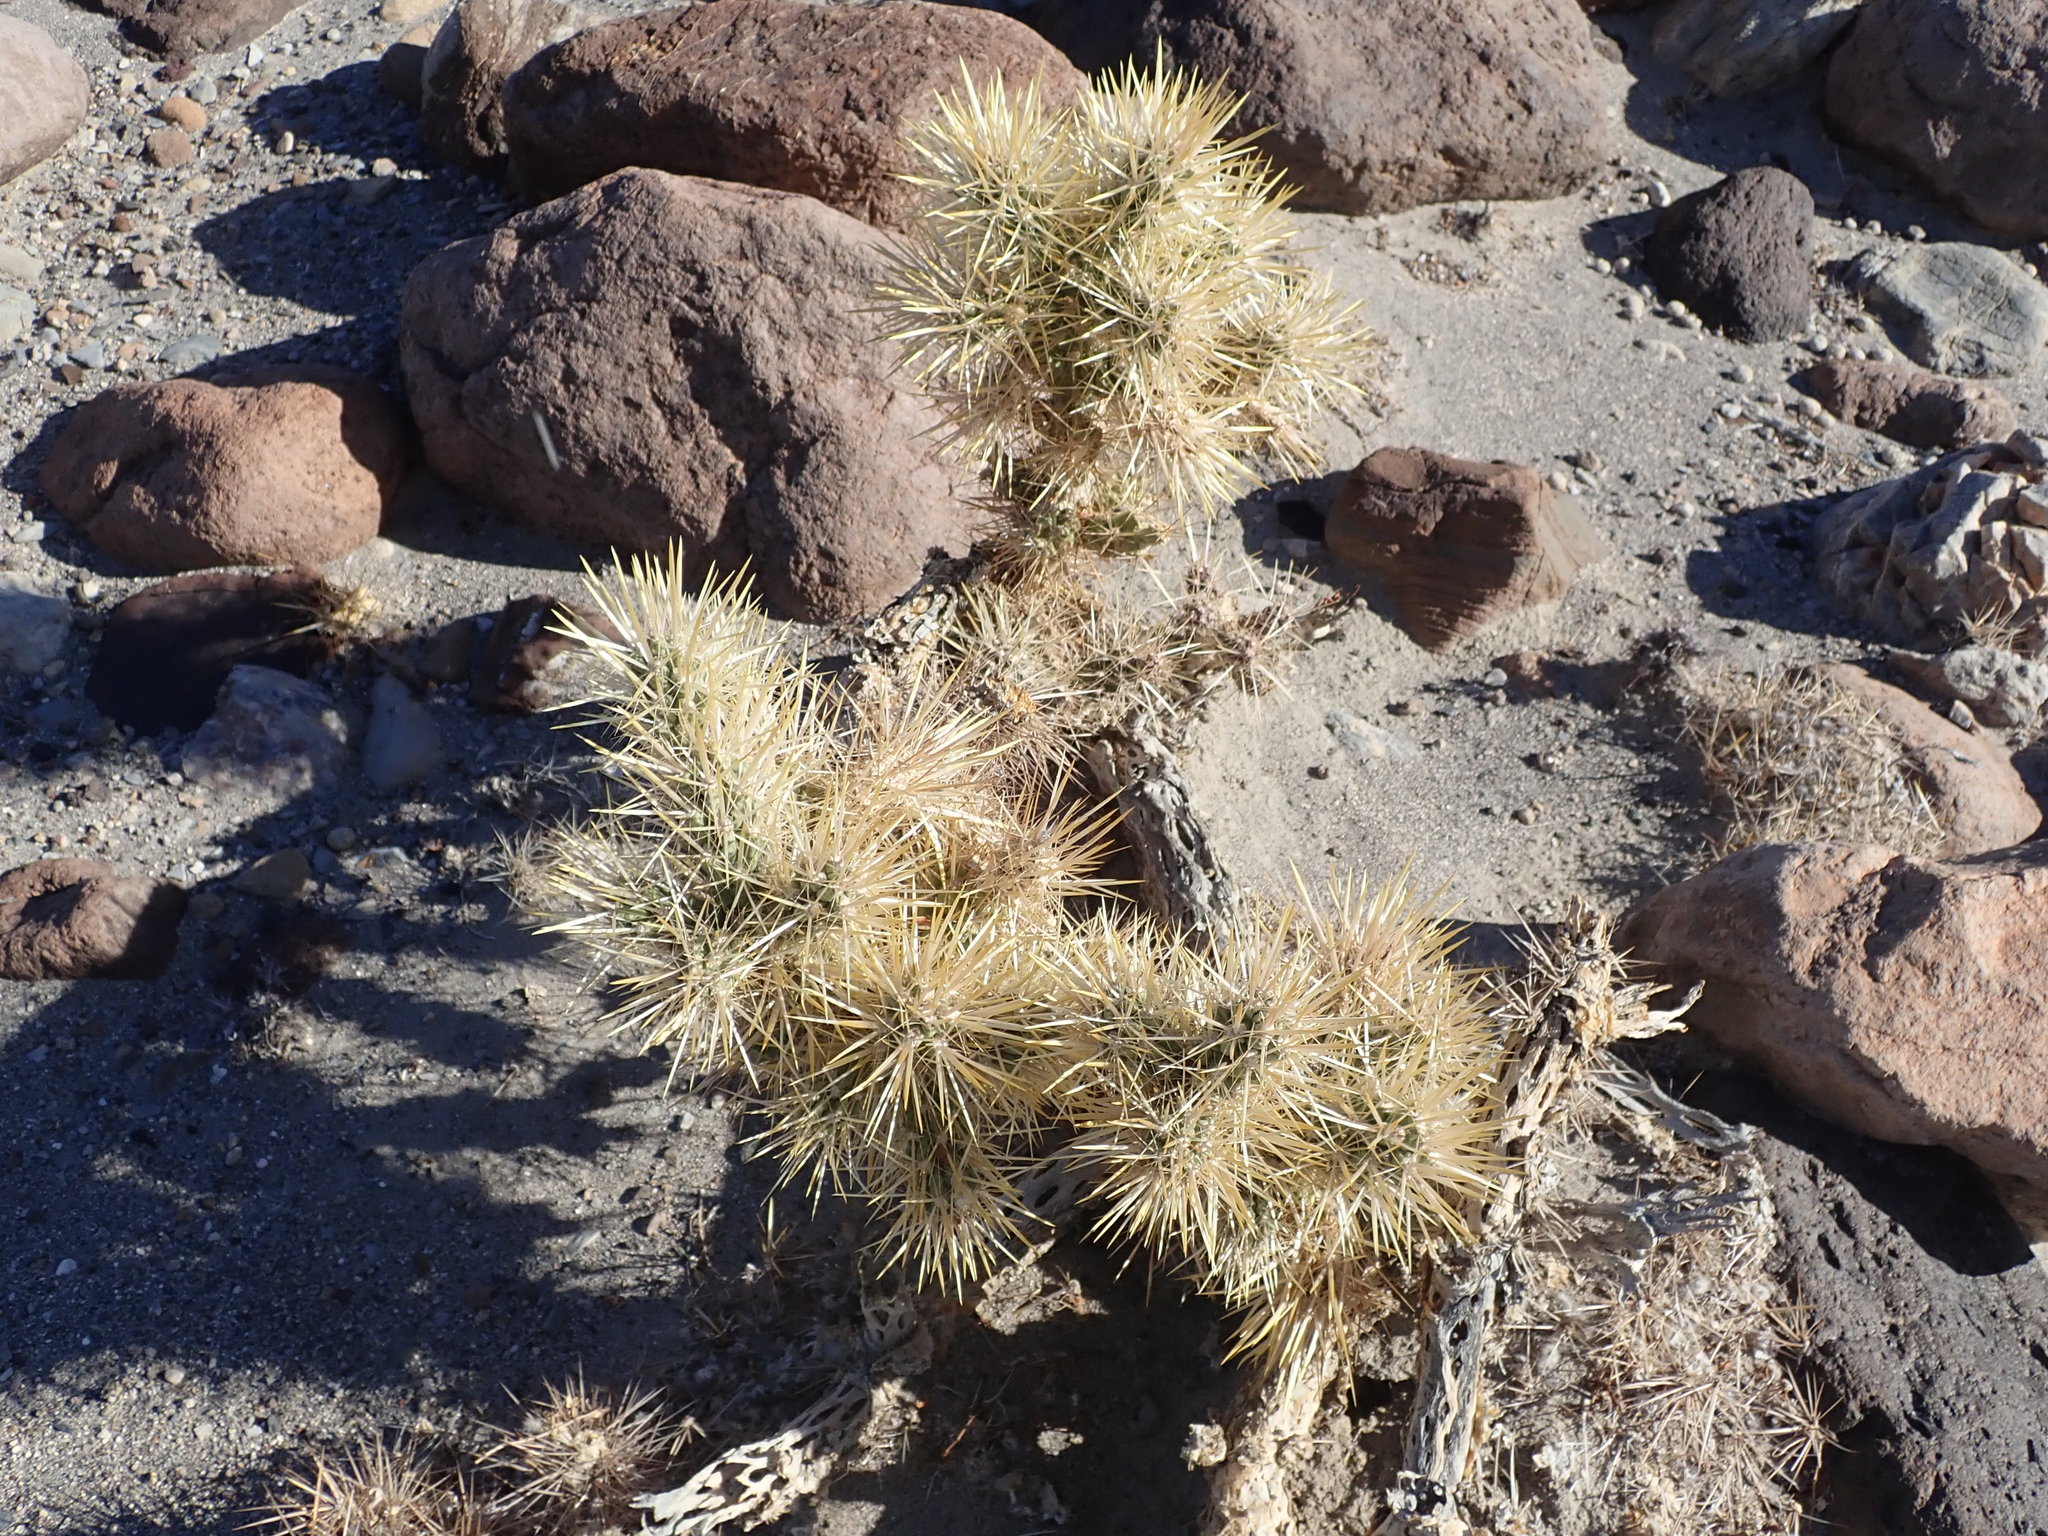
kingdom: Plantae
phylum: Tracheophyta
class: Magnoliopsida
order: Caryophyllales
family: Cactaceae
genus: Cylindropuntia
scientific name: Cylindropuntia echinocarpa
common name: Ground cholla
